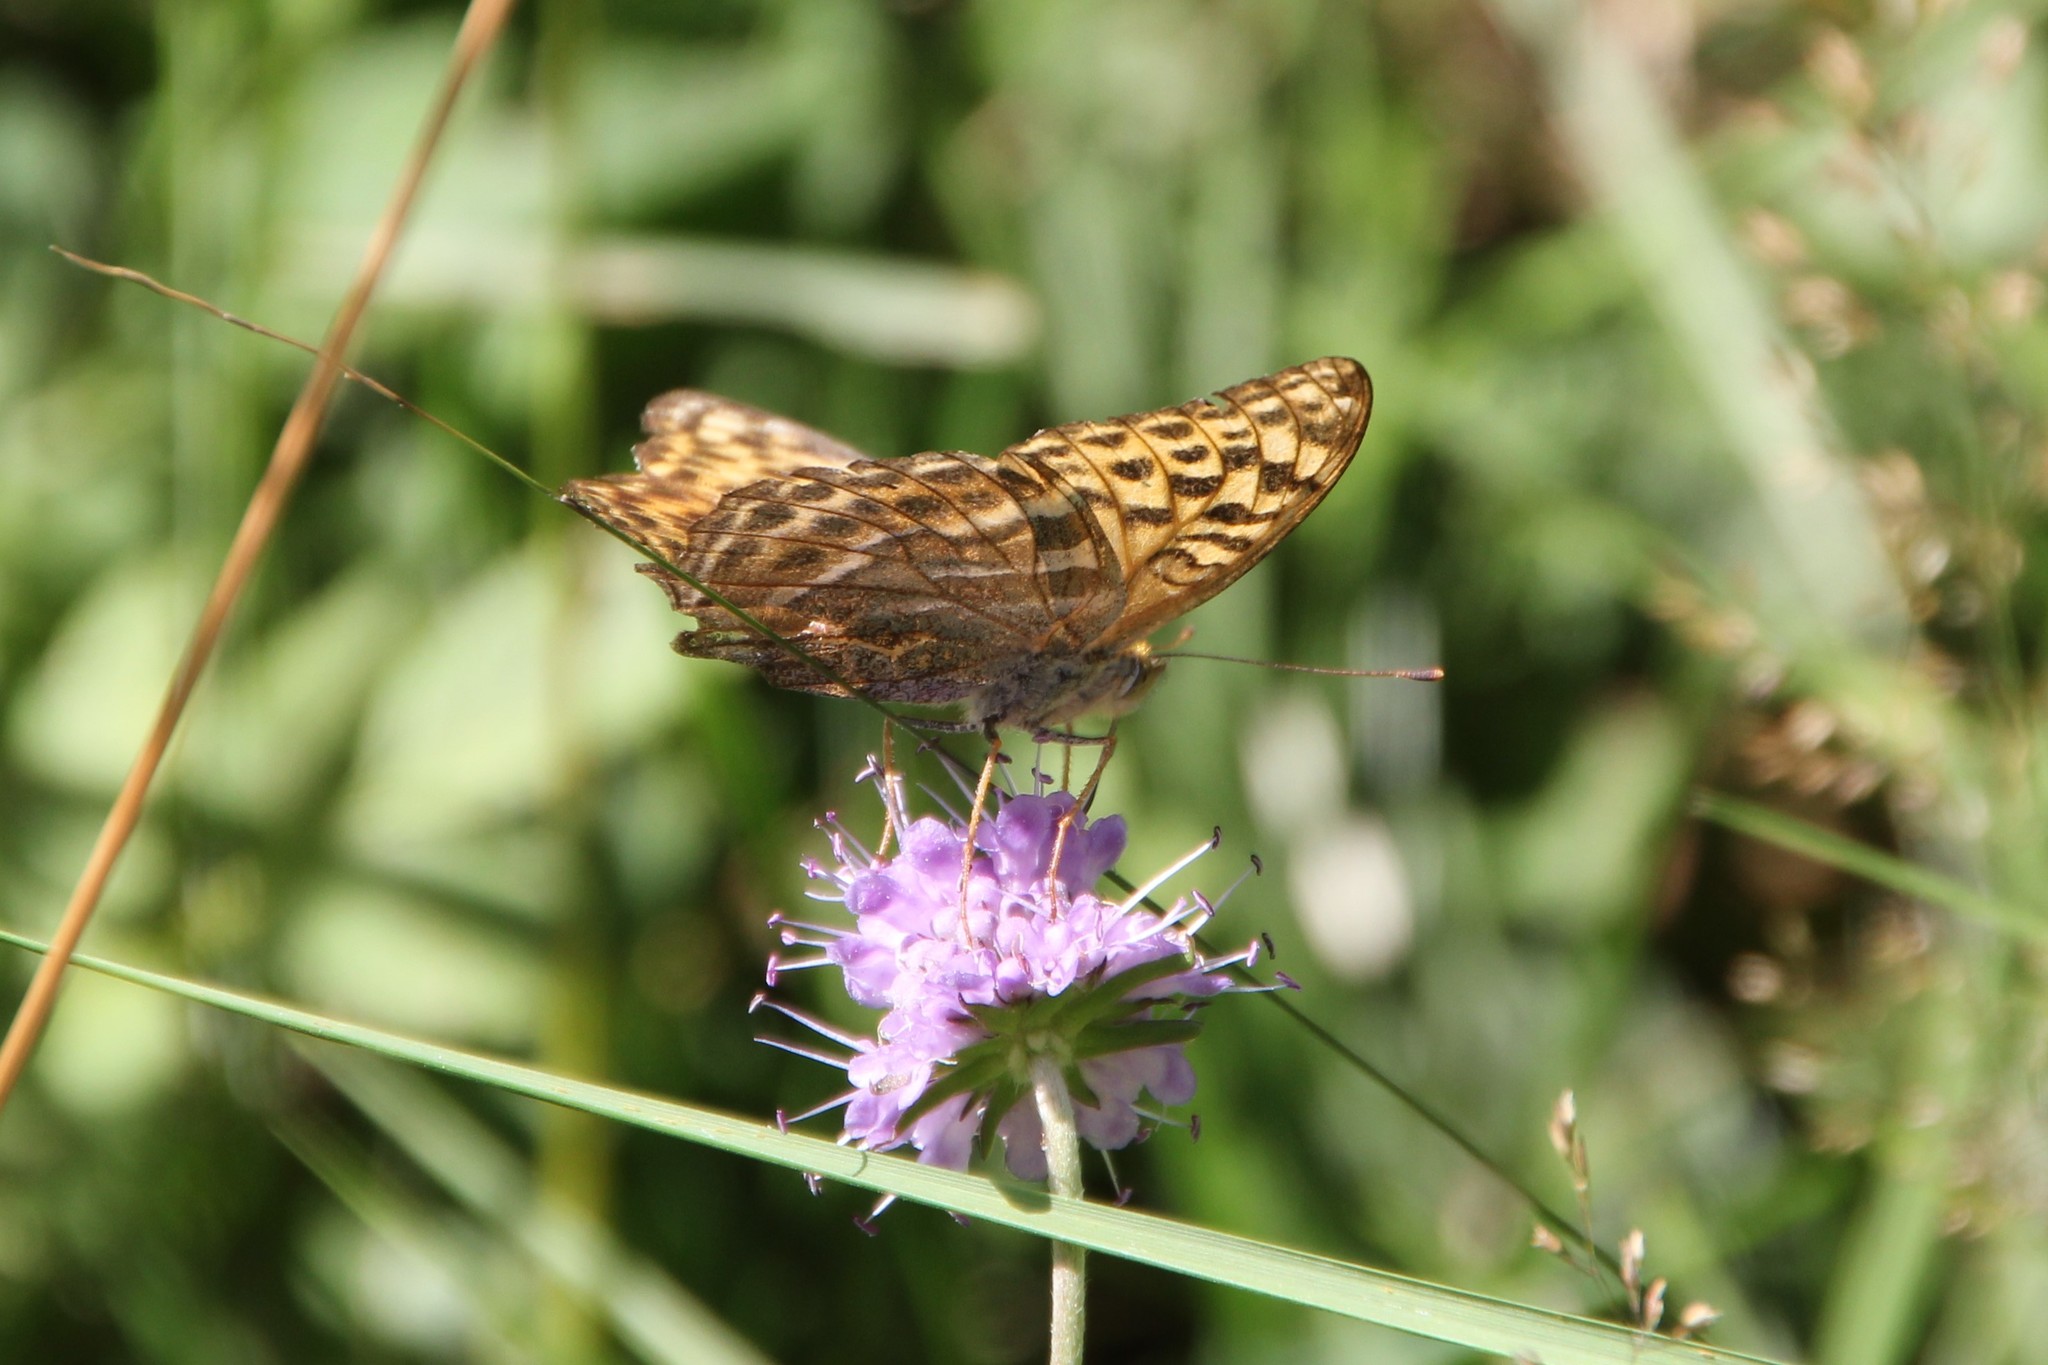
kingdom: Animalia
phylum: Arthropoda
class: Insecta
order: Lepidoptera
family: Nymphalidae
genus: Argynnis
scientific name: Argynnis paphia
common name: Silver-washed fritillary
